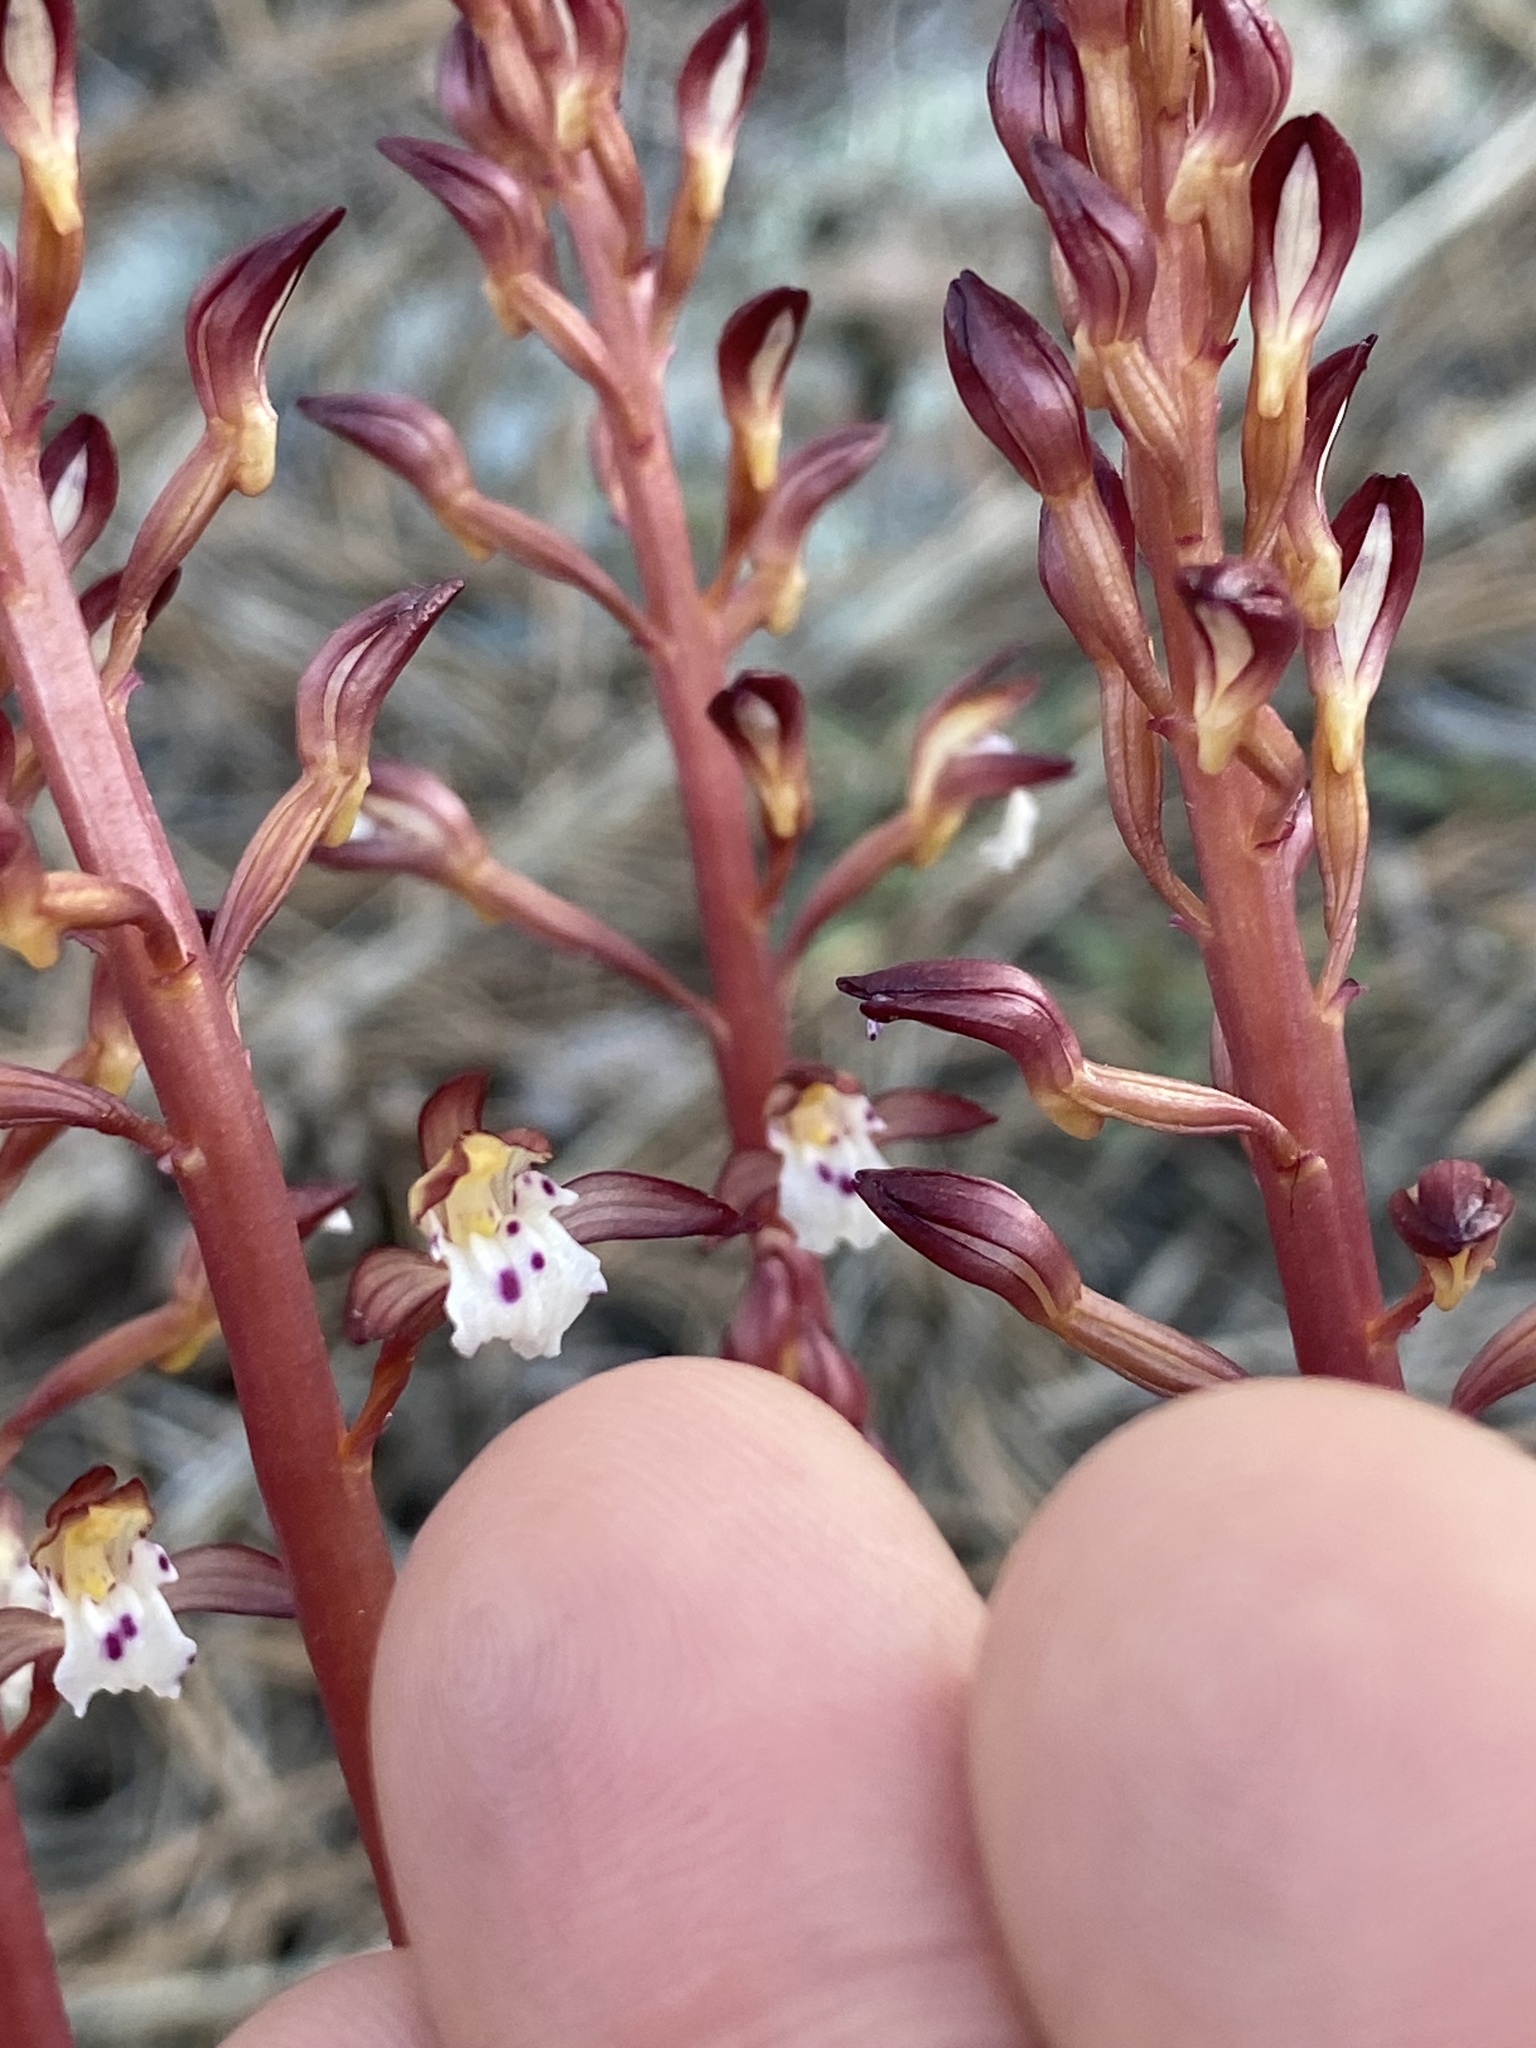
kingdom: Plantae
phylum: Tracheophyta
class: Liliopsida
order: Asparagales
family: Orchidaceae
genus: Corallorhiza
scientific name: Corallorhiza maculata
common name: Spotted coralroot
